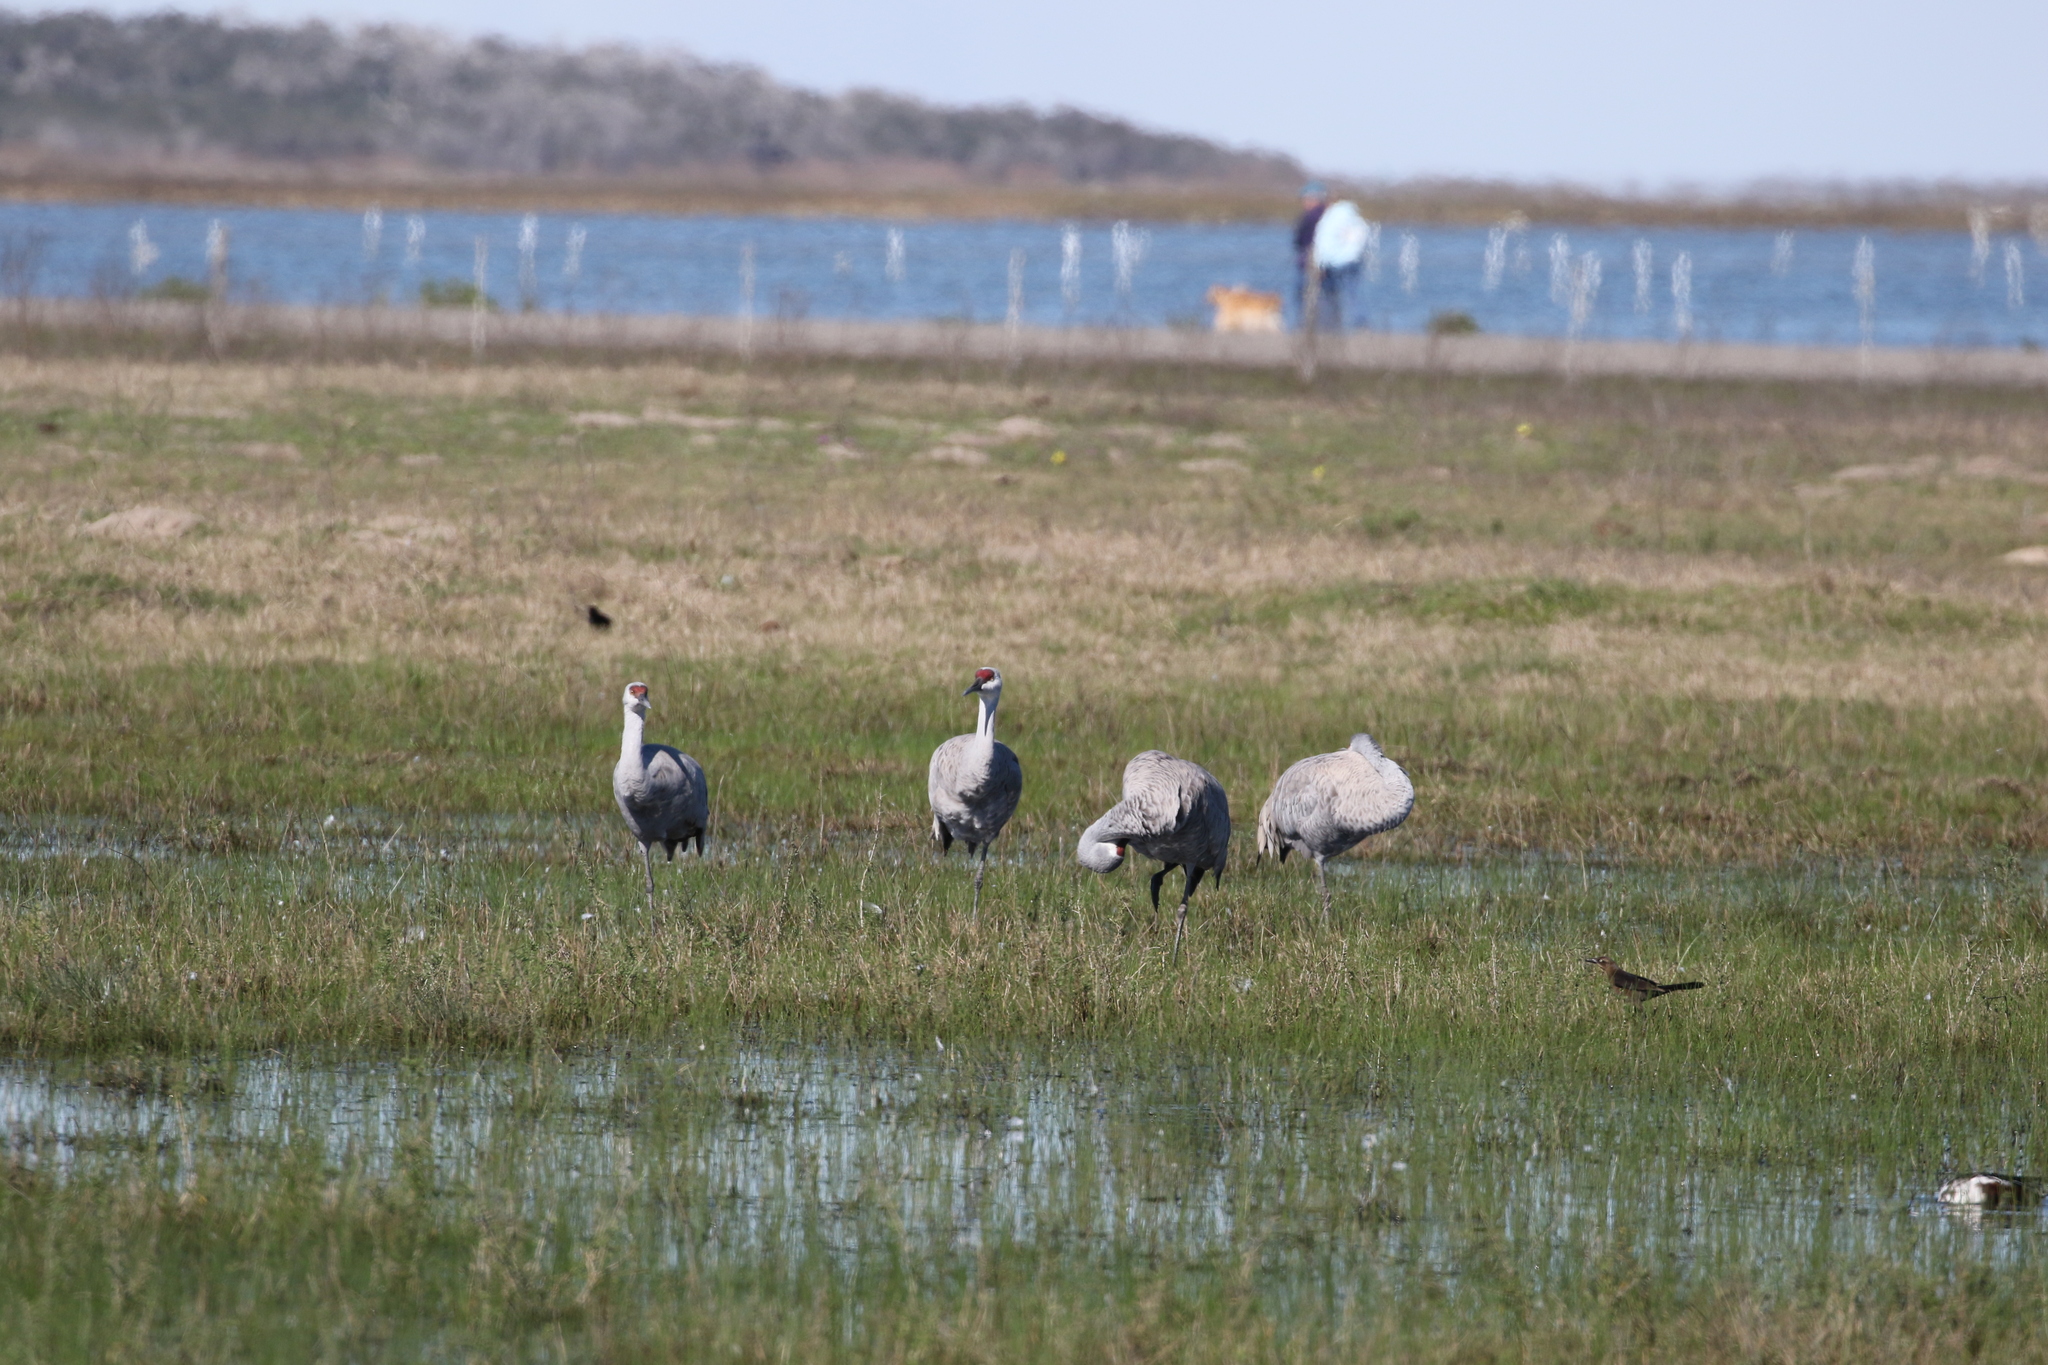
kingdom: Animalia
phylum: Chordata
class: Aves
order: Gruiformes
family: Gruidae
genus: Grus
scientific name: Grus canadensis
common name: Sandhill crane
